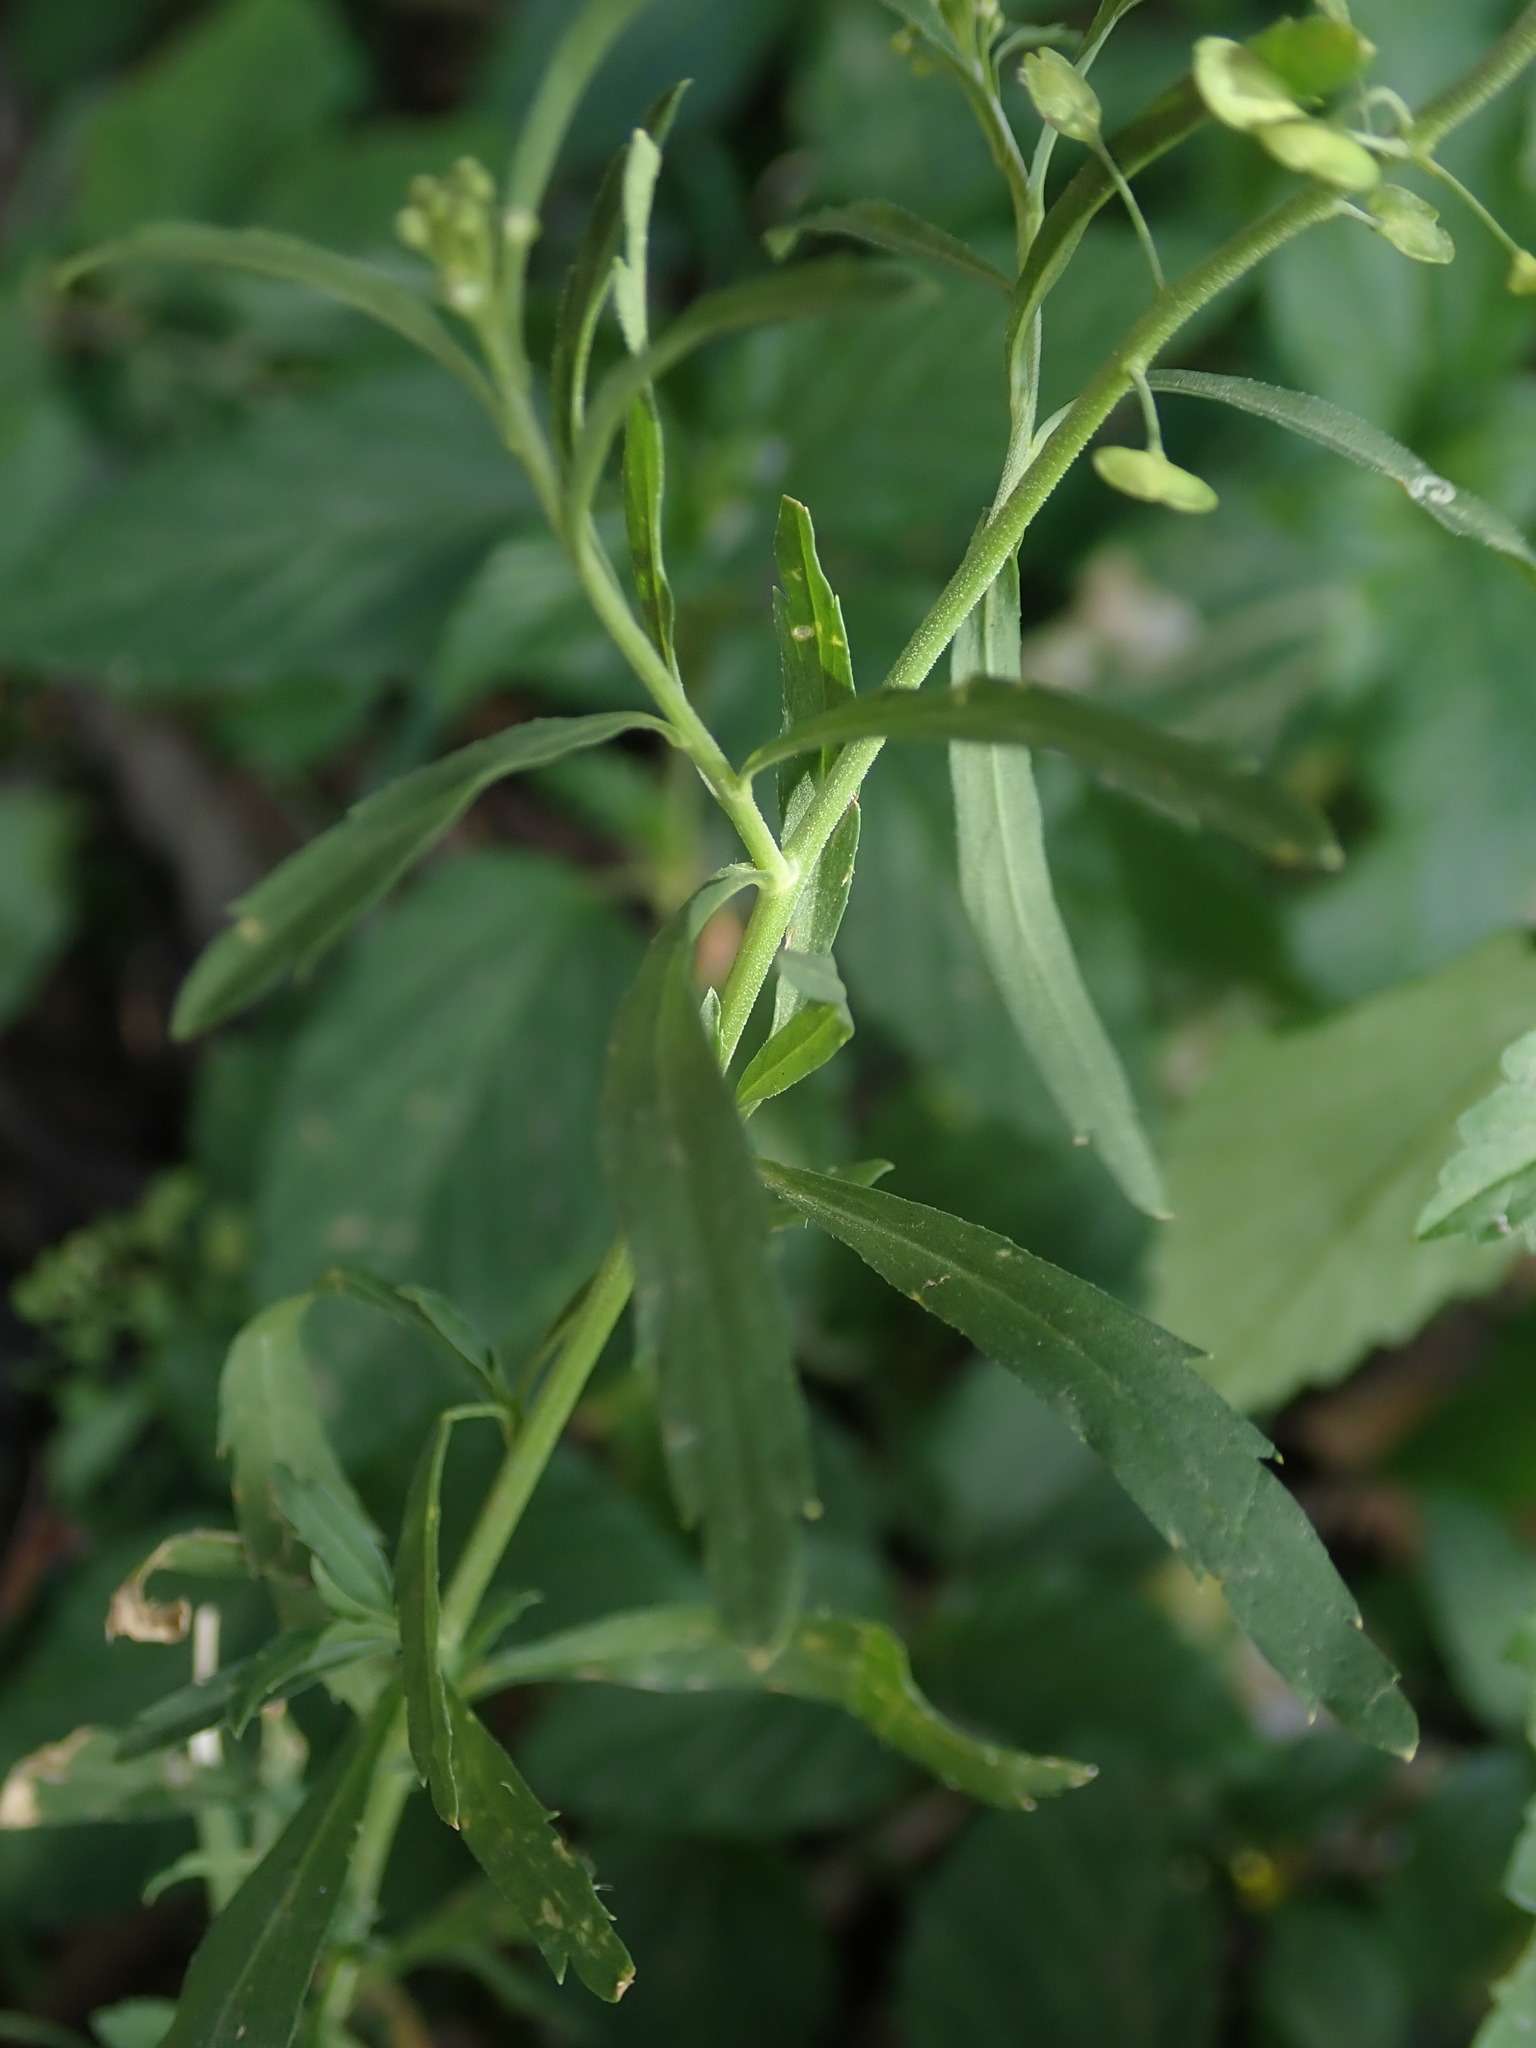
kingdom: Plantae
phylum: Tracheophyta
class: Magnoliopsida
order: Brassicales
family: Brassicaceae
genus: Lepidium
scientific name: Lepidium virginicum
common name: Least pepperwort
